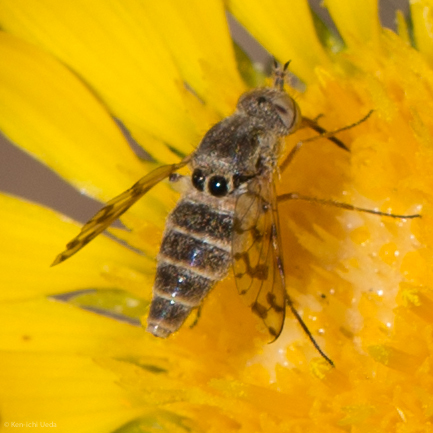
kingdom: Animalia
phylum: Arthropoda
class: Insecta
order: Diptera
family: Bombyliidae
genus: Geminaria
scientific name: Geminaria canalis
